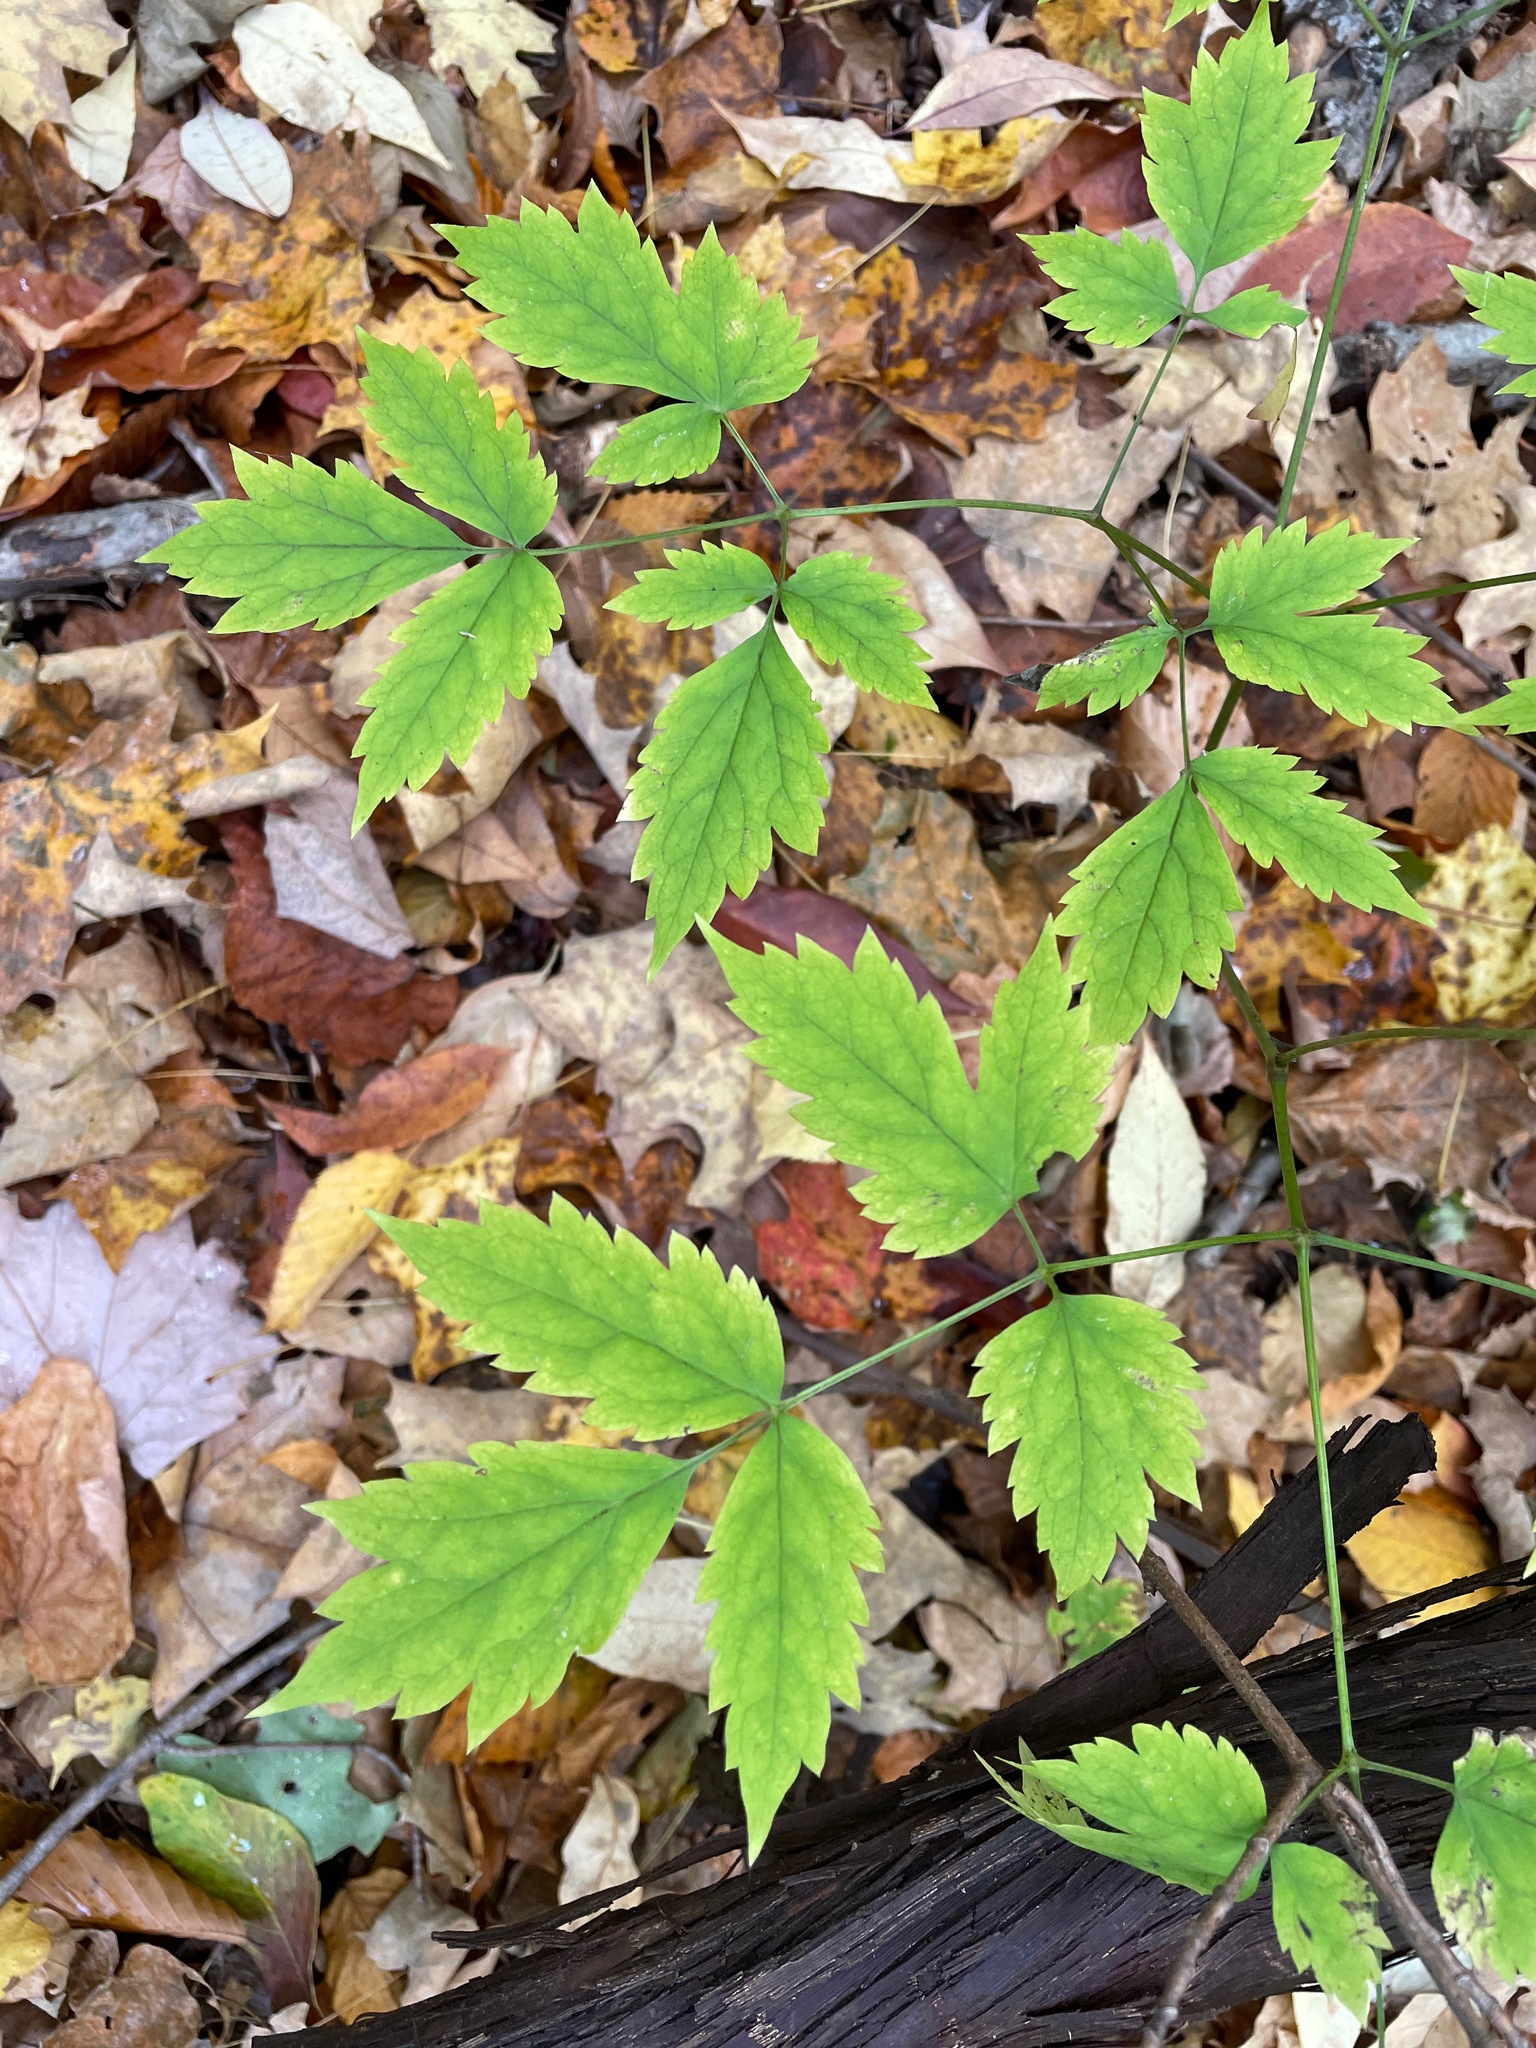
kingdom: Plantae
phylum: Tracheophyta
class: Magnoliopsida
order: Ranunculales
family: Ranunculaceae
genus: Actaea
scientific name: Actaea pachypoda
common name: Doll's-eyes
